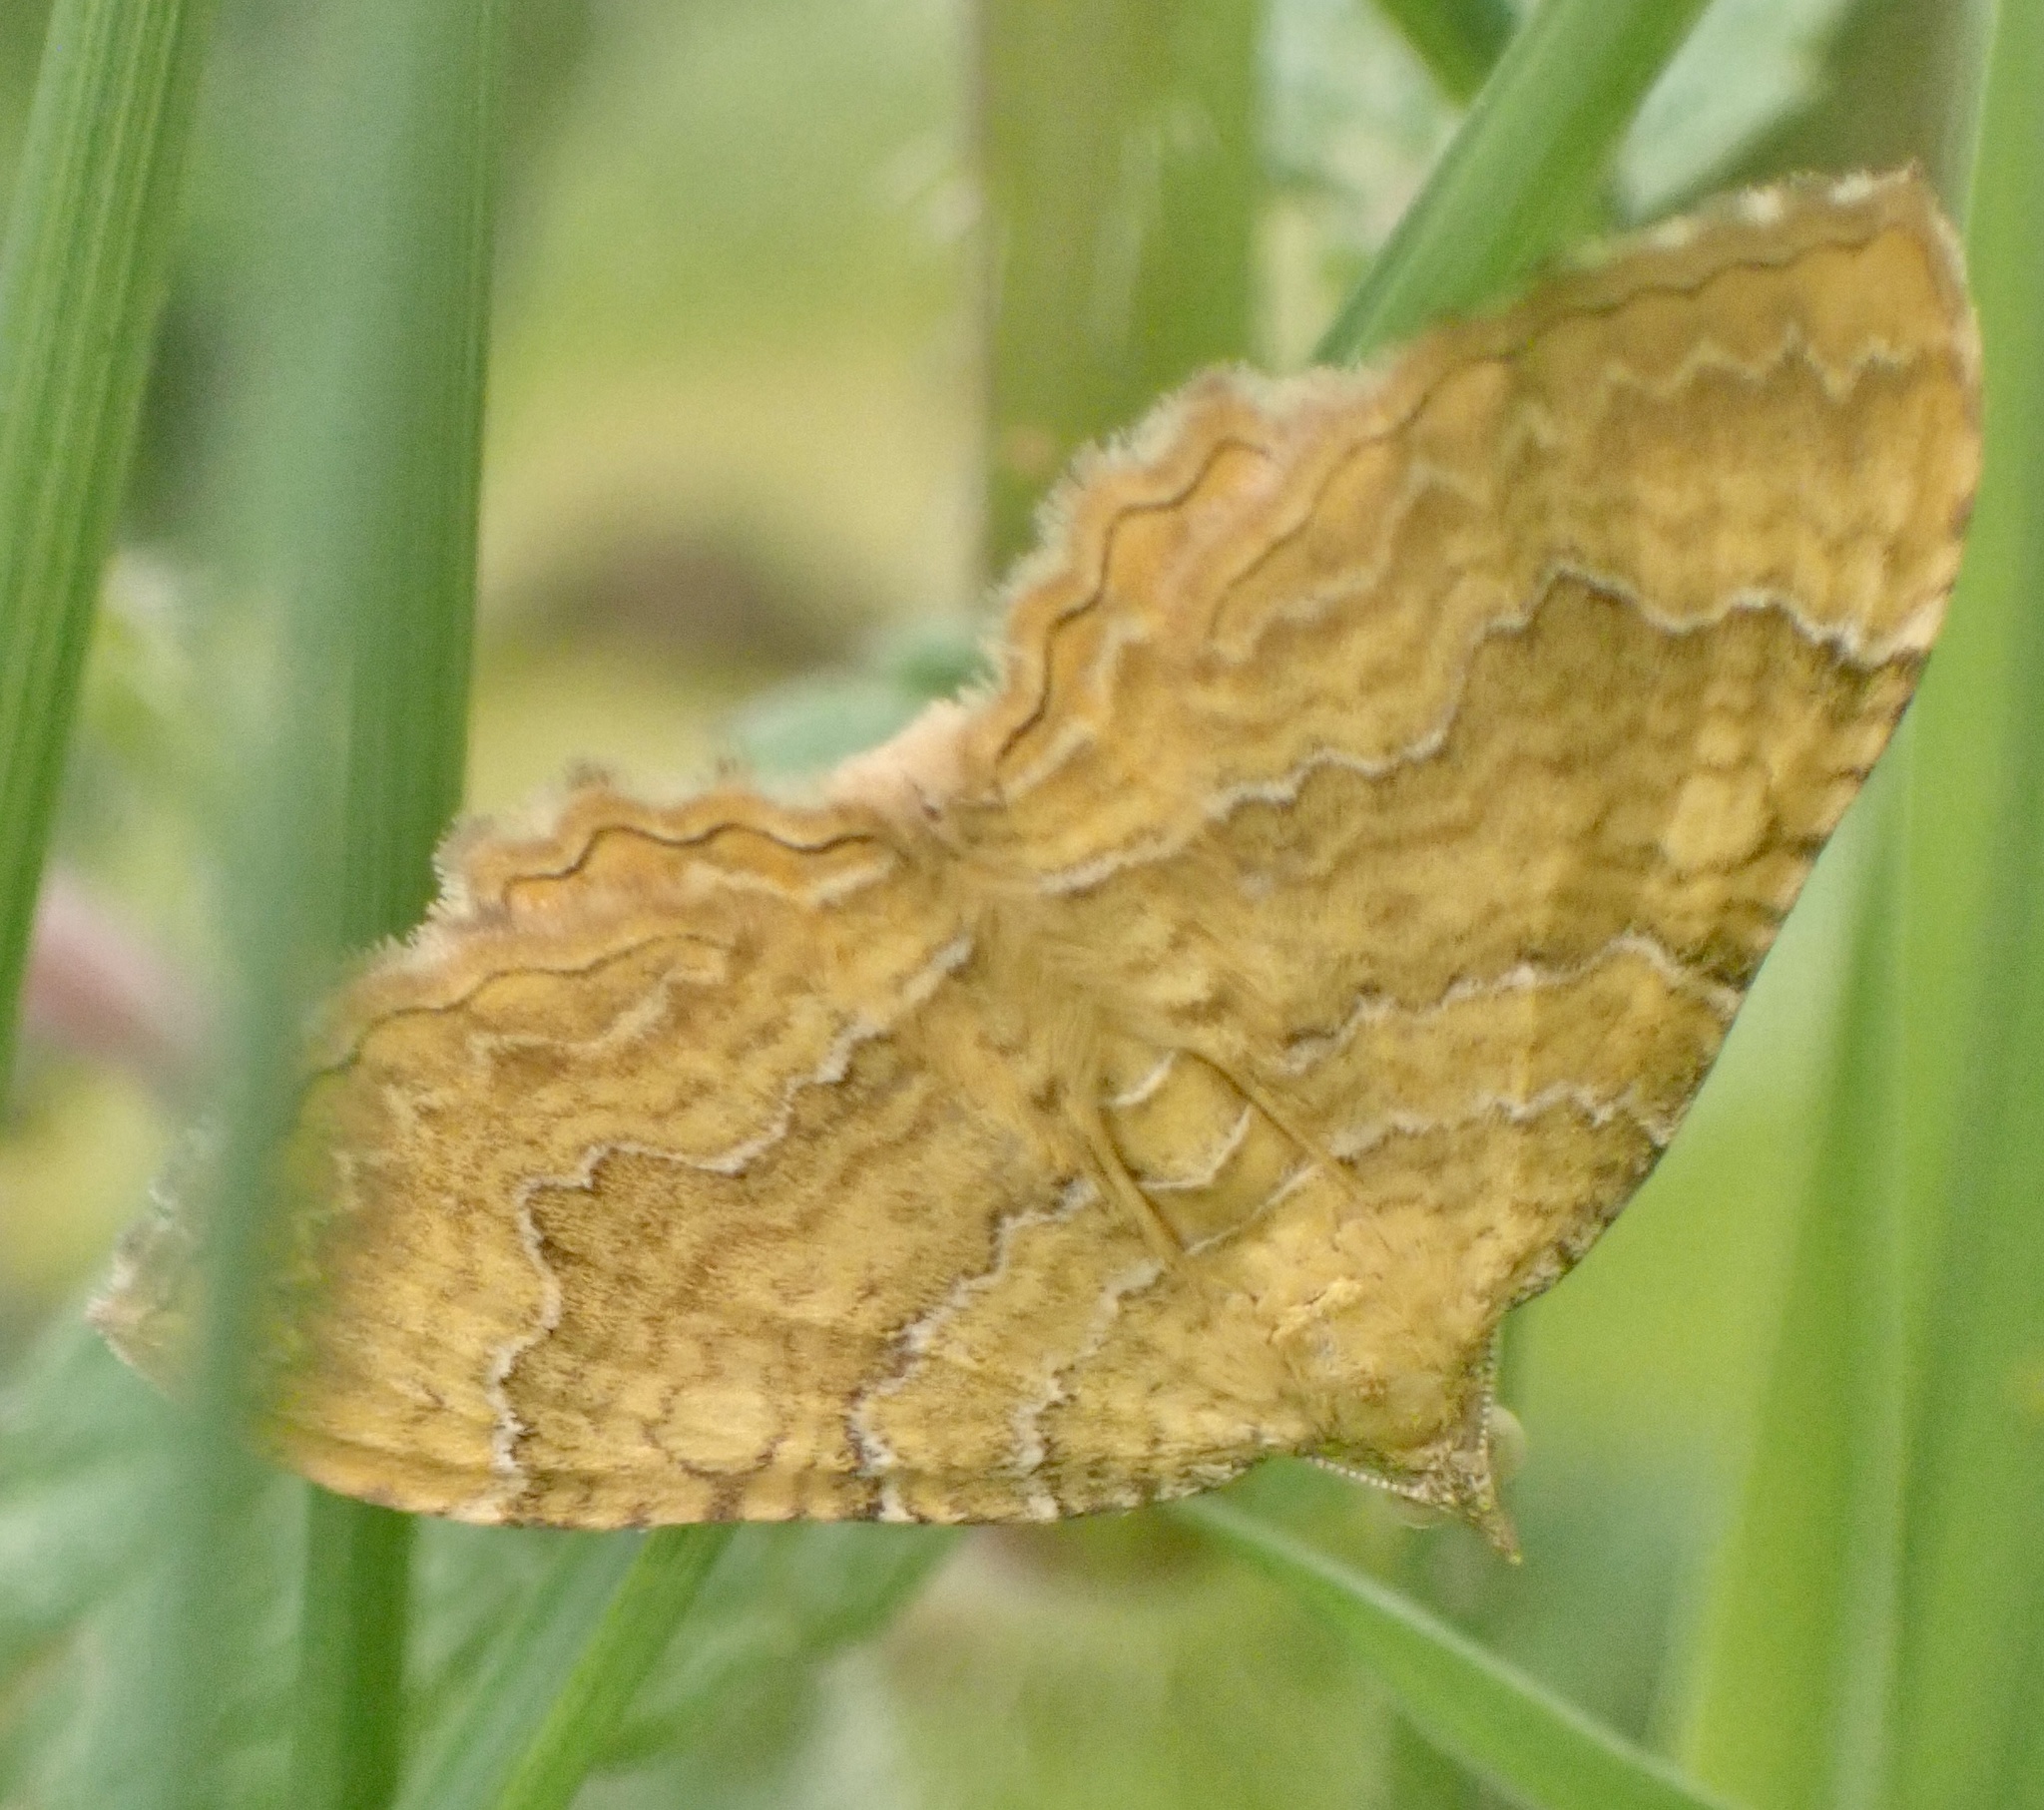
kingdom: Animalia
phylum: Arthropoda
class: Insecta
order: Lepidoptera
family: Geometridae
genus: Camptogramma
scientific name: Camptogramma bilineata
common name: Yellow shell
